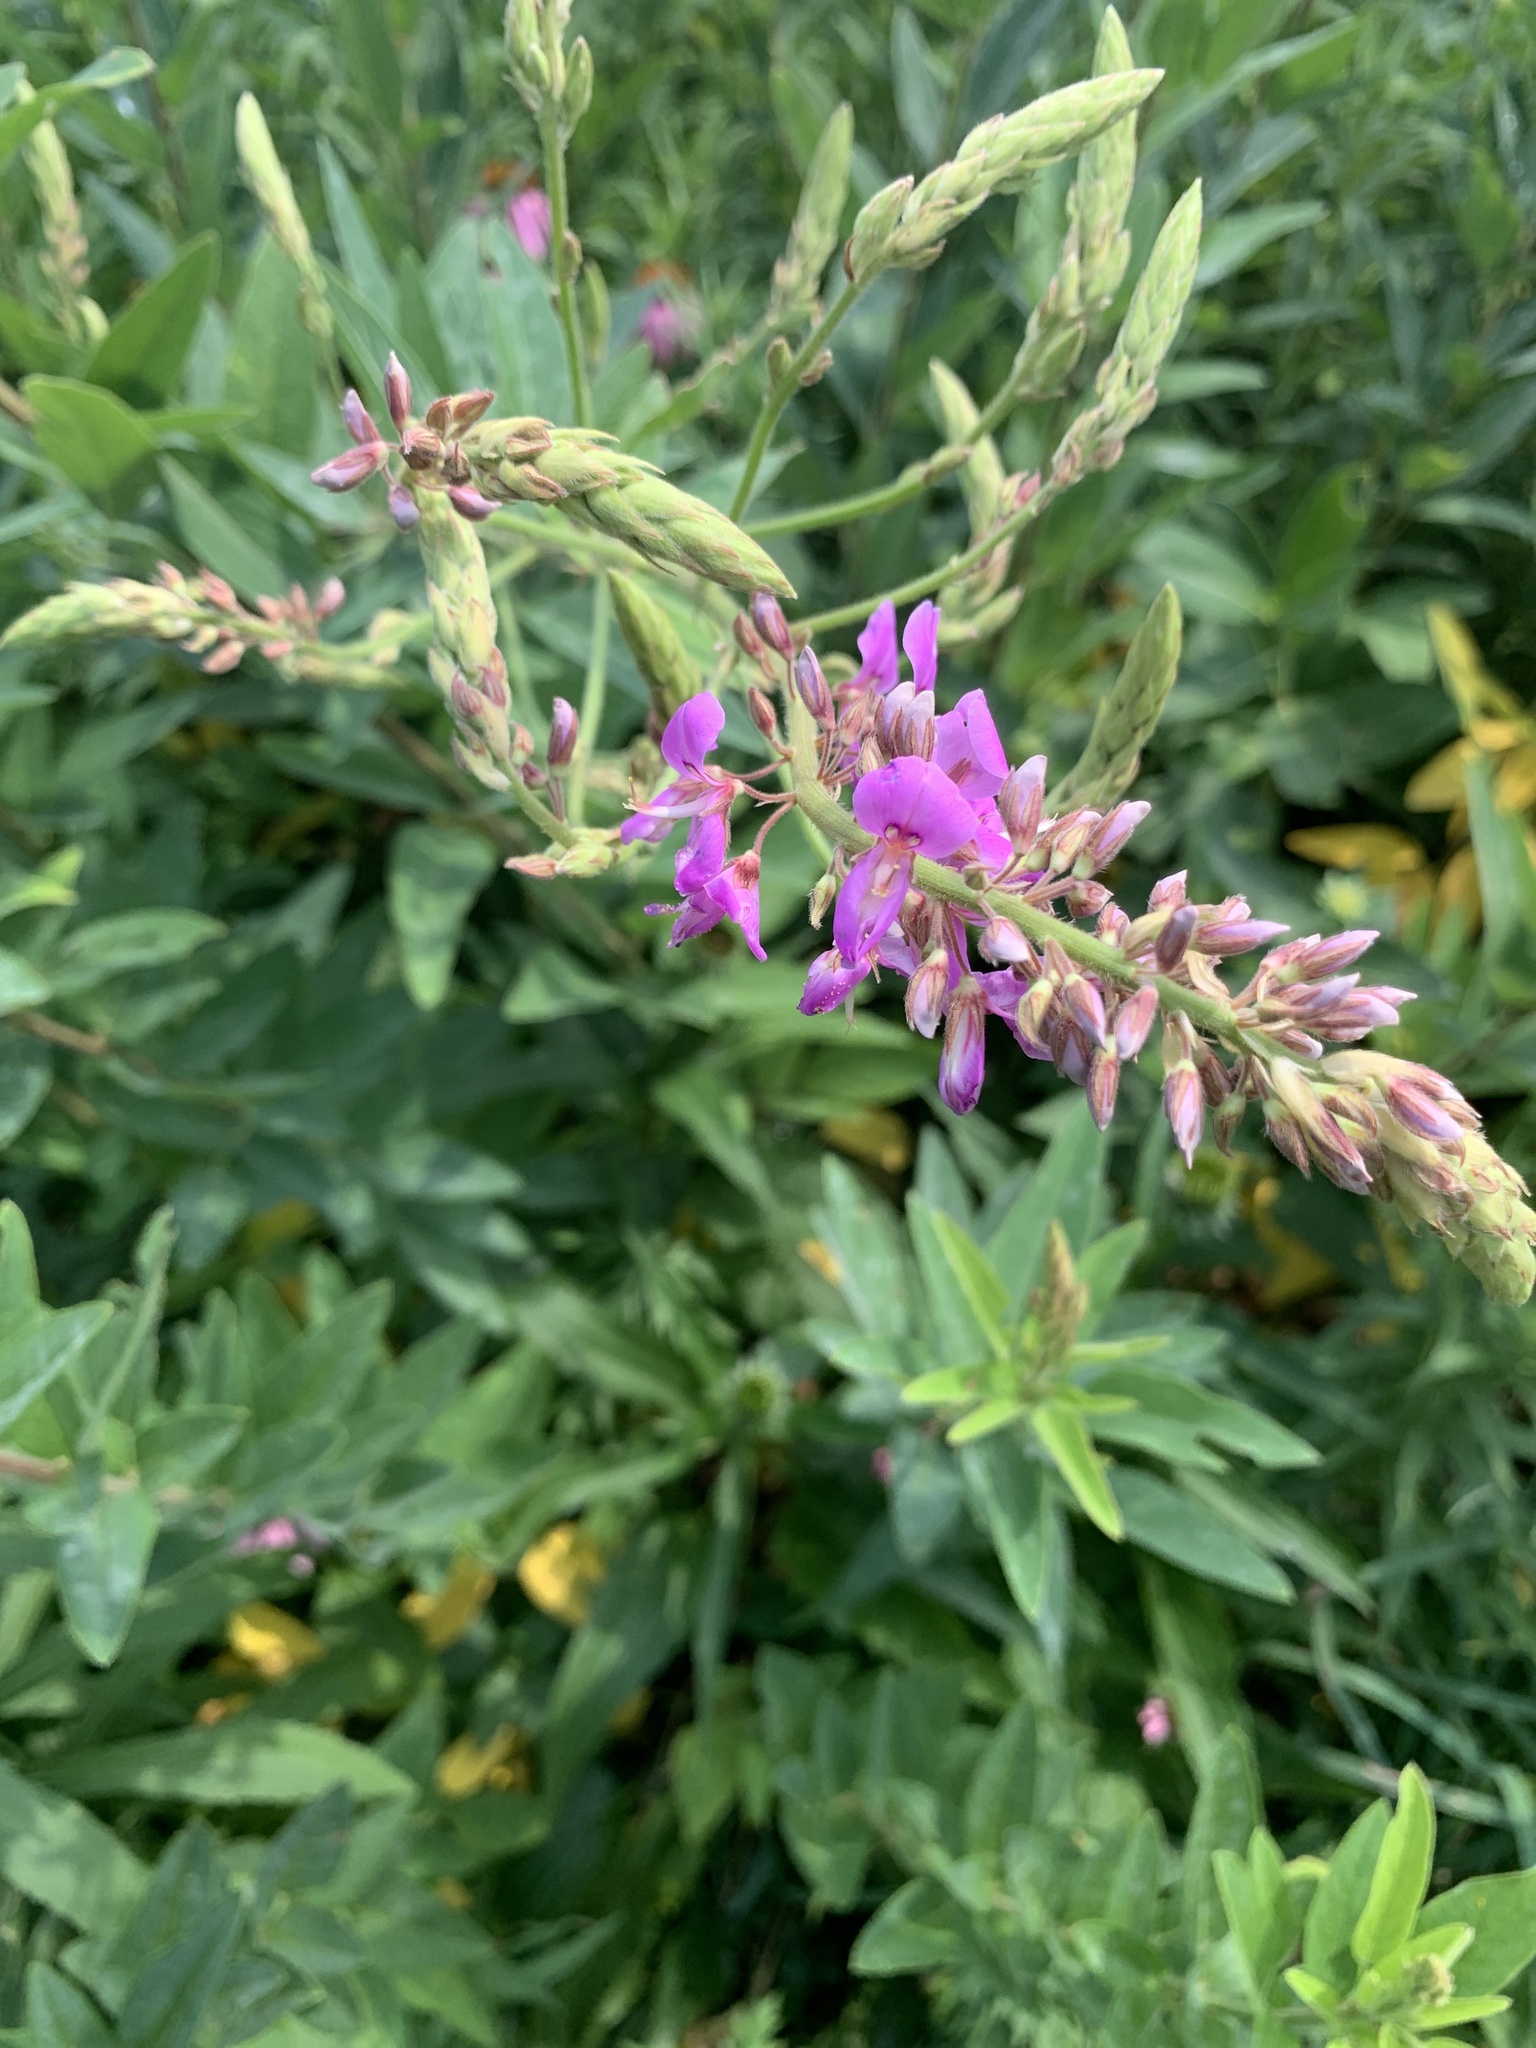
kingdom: Plantae
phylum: Tracheophyta
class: Magnoliopsida
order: Fabales
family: Fabaceae
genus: Desmodium
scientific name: Desmodium canadense
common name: Canada tick-trefoil
